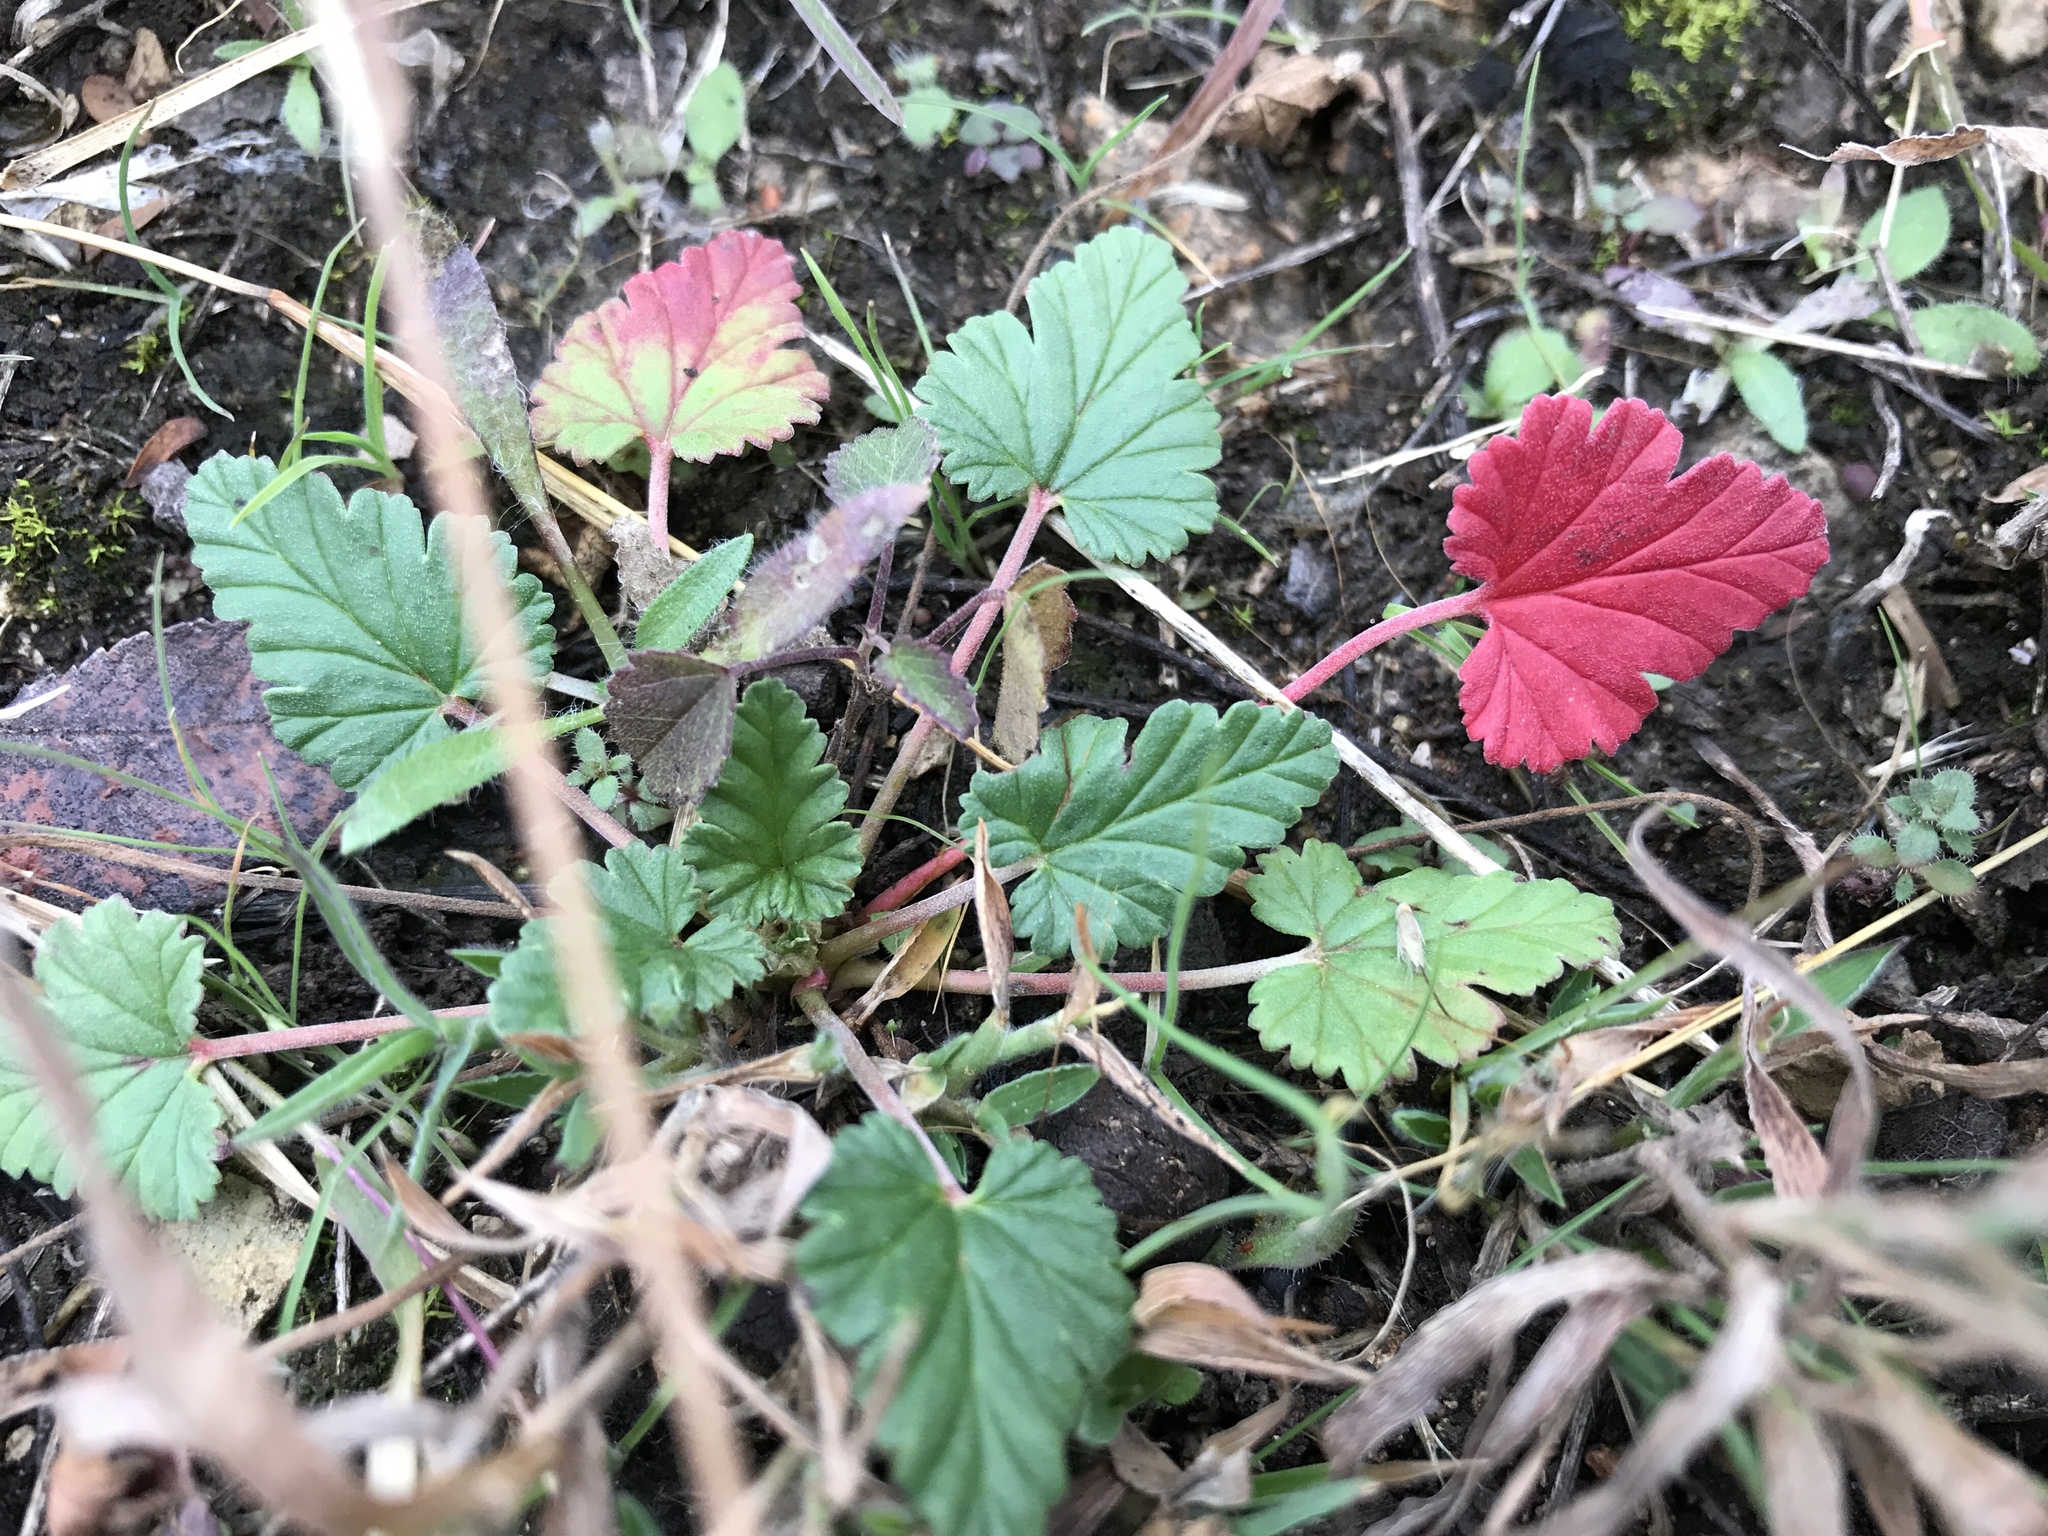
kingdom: Plantae
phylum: Tracheophyta
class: Magnoliopsida
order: Geraniales
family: Geraniaceae
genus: Erodium
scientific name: Erodium texanum
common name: Texas stork's-bill
